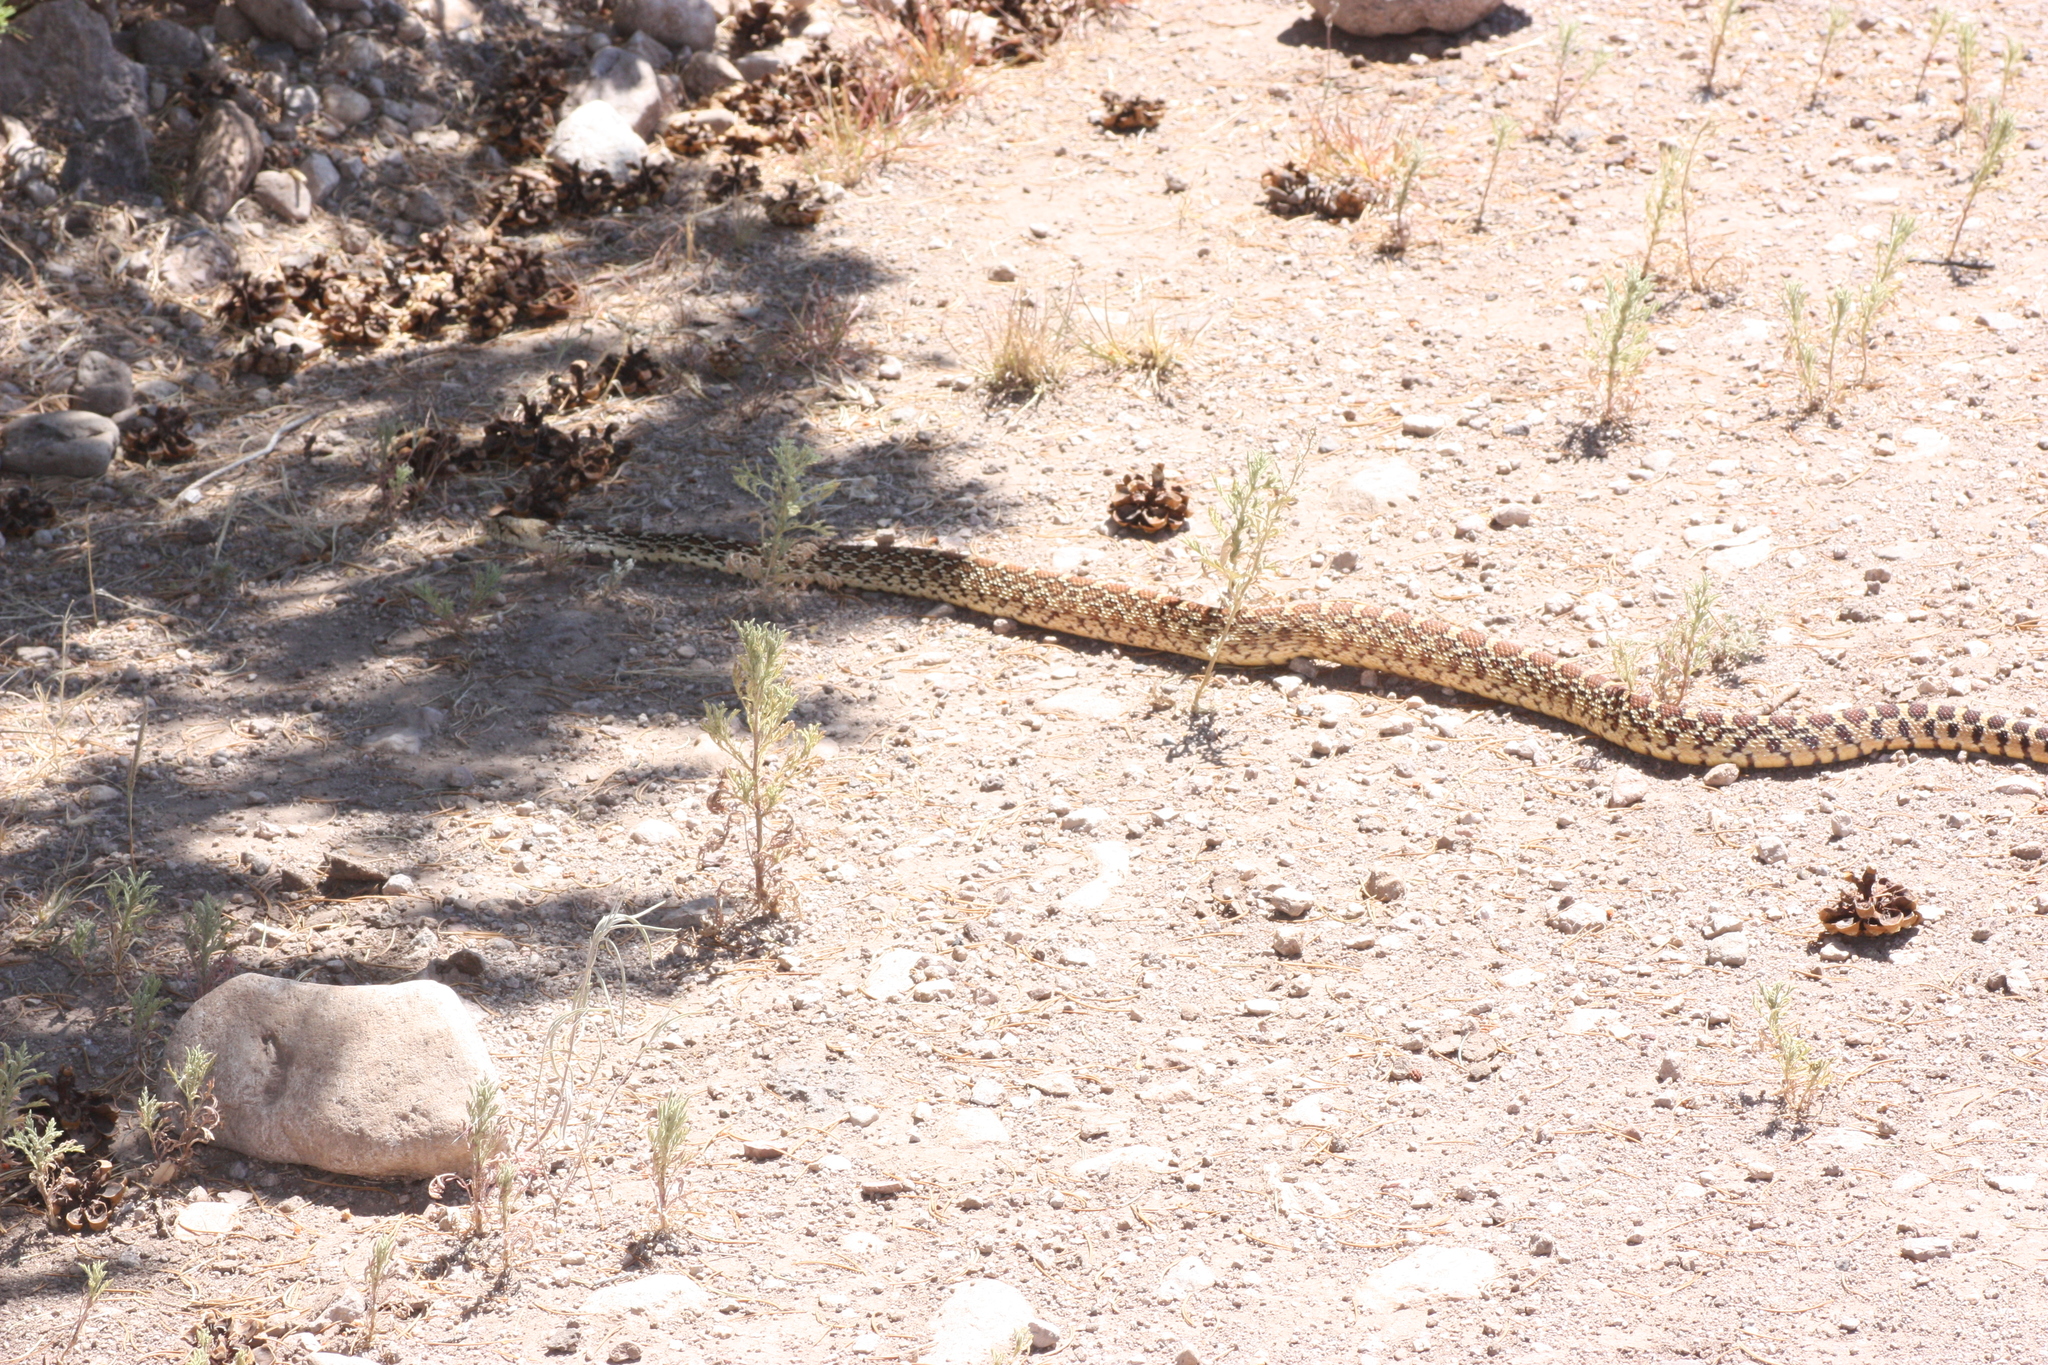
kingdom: Animalia
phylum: Chordata
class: Squamata
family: Colubridae
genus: Pituophis
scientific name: Pituophis catenifer
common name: Gopher snake
